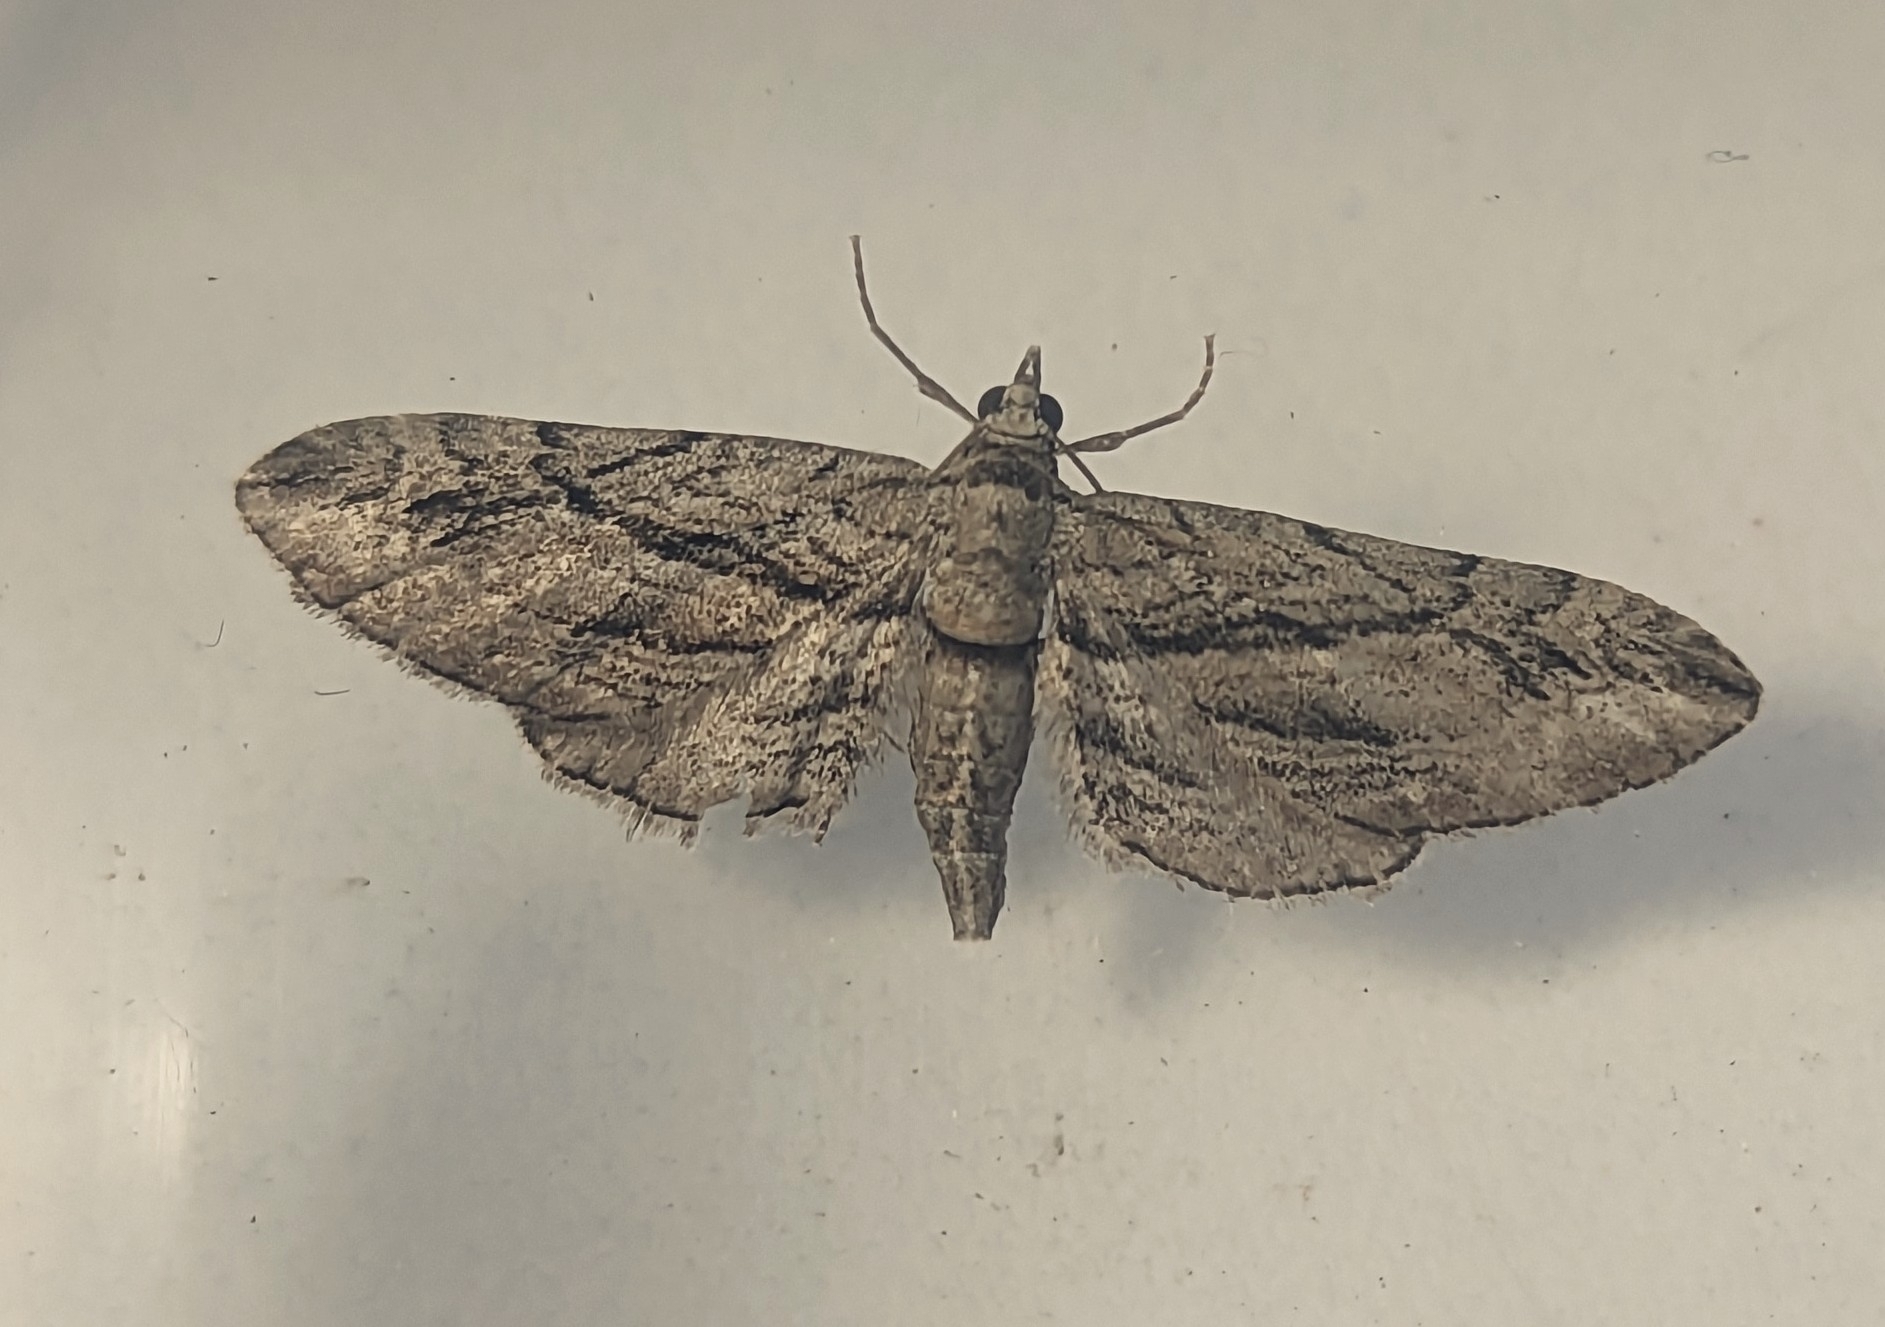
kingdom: Animalia
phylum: Arthropoda
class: Insecta
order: Lepidoptera
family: Geometridae
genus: Eupithecia
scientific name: Eupithecia phoeniceata
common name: Cypress pug
